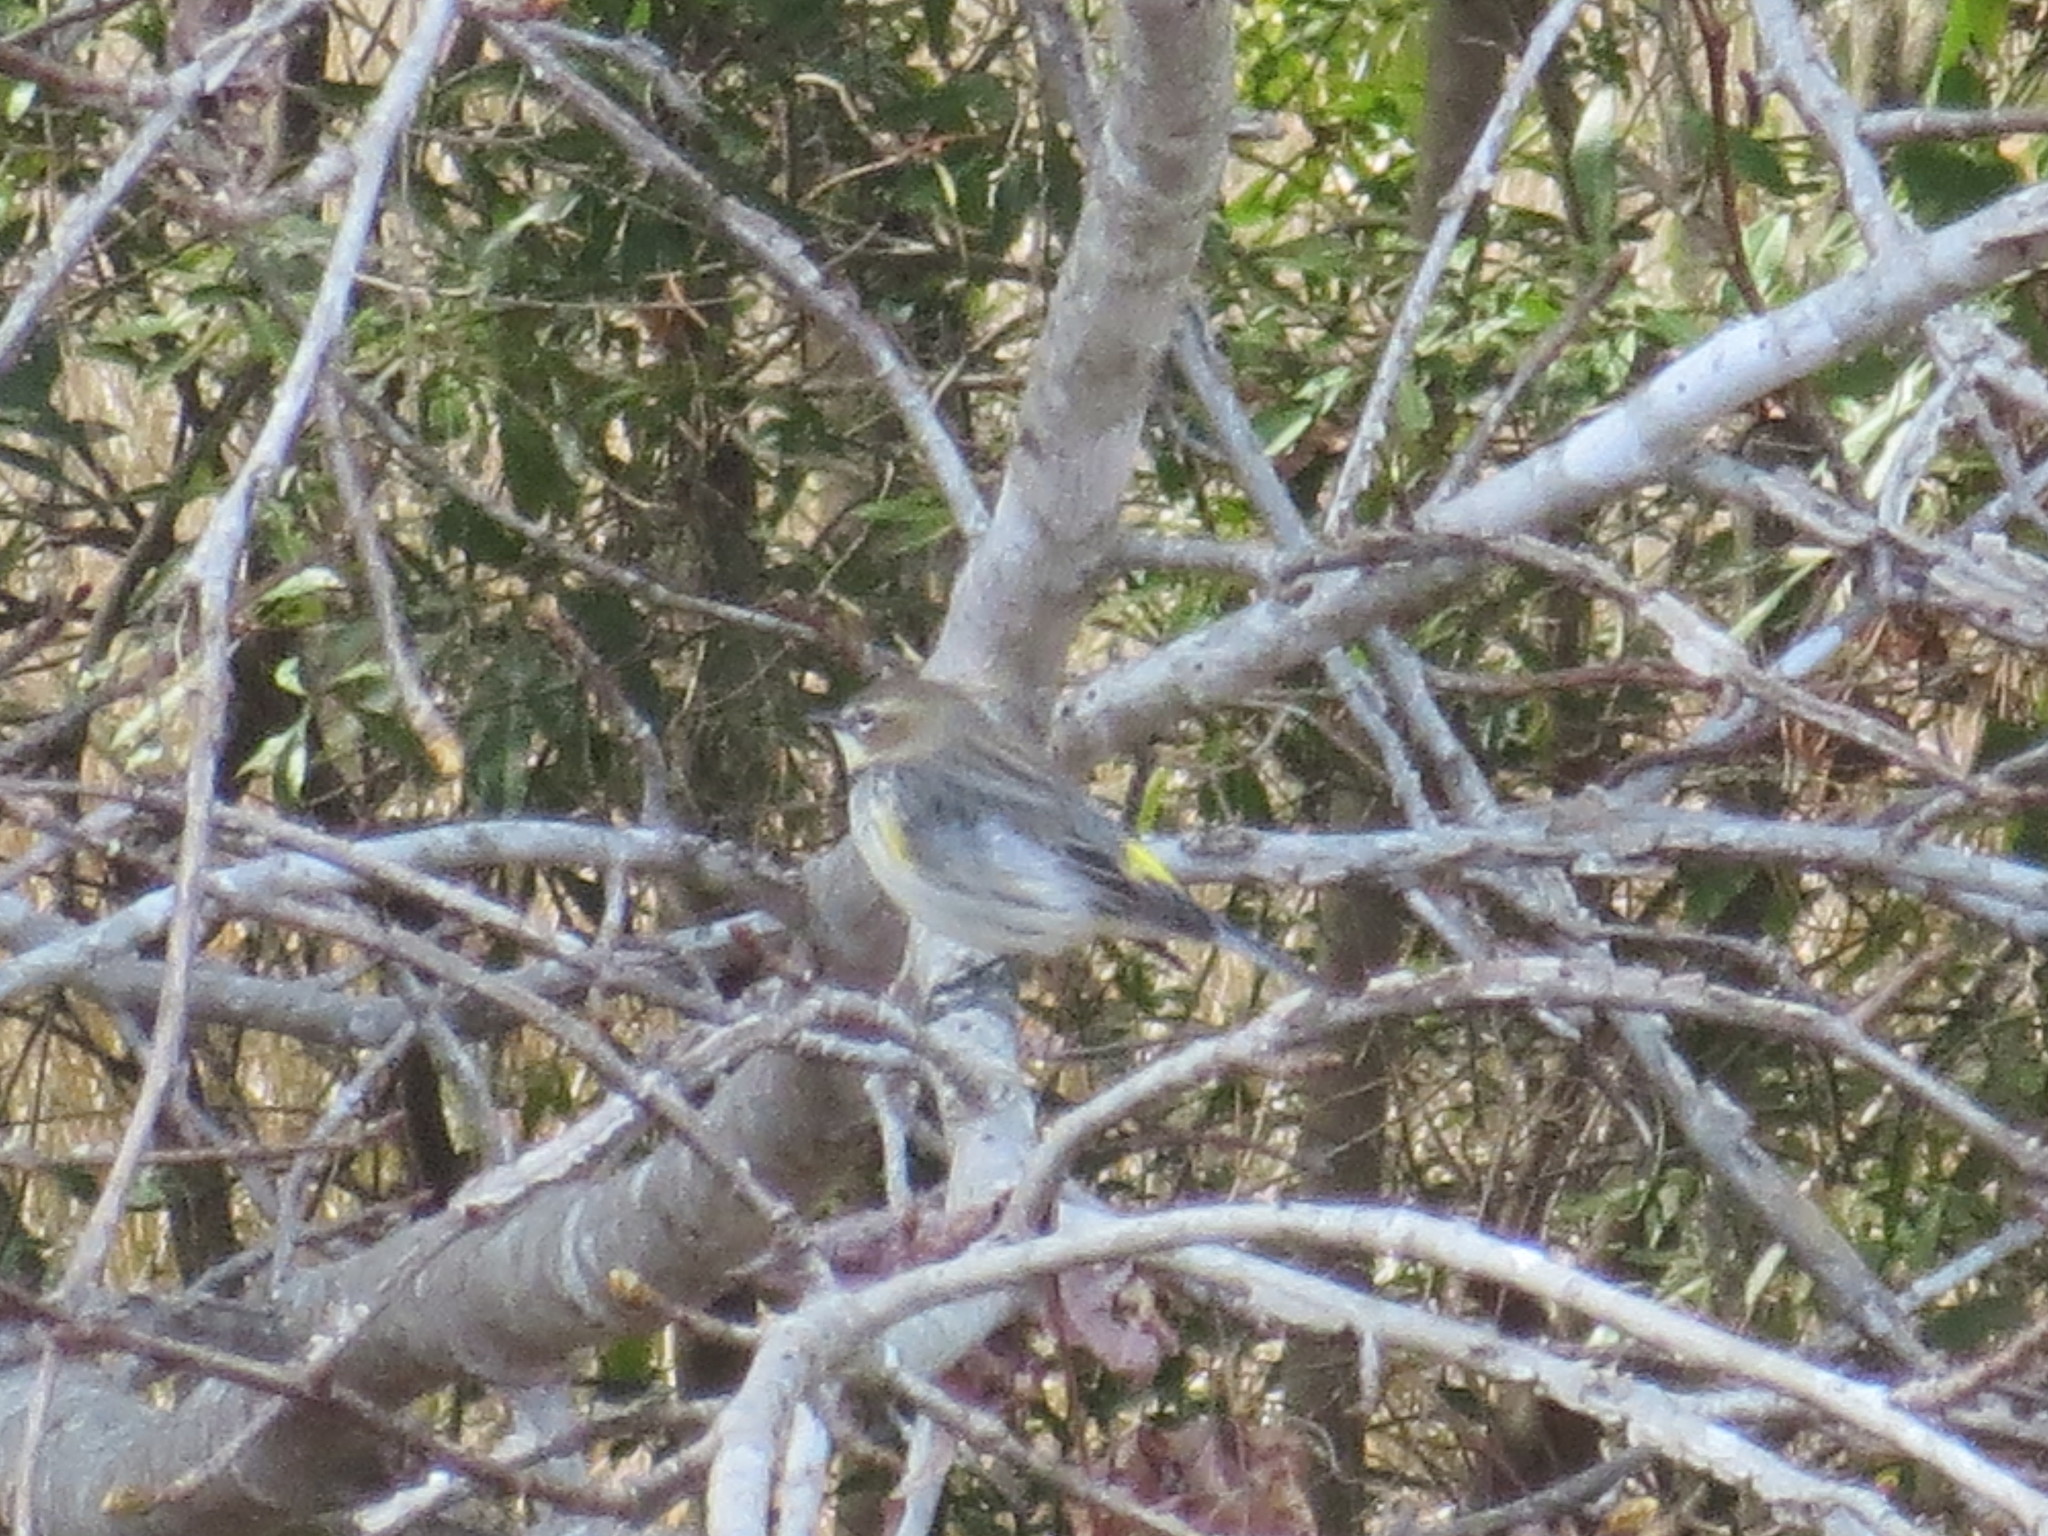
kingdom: Animalia
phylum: Chordata
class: Aves
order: Passeriformes
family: Parulidae
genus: Setophaga
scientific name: Setophaga coronata
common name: Myrtle warbler
